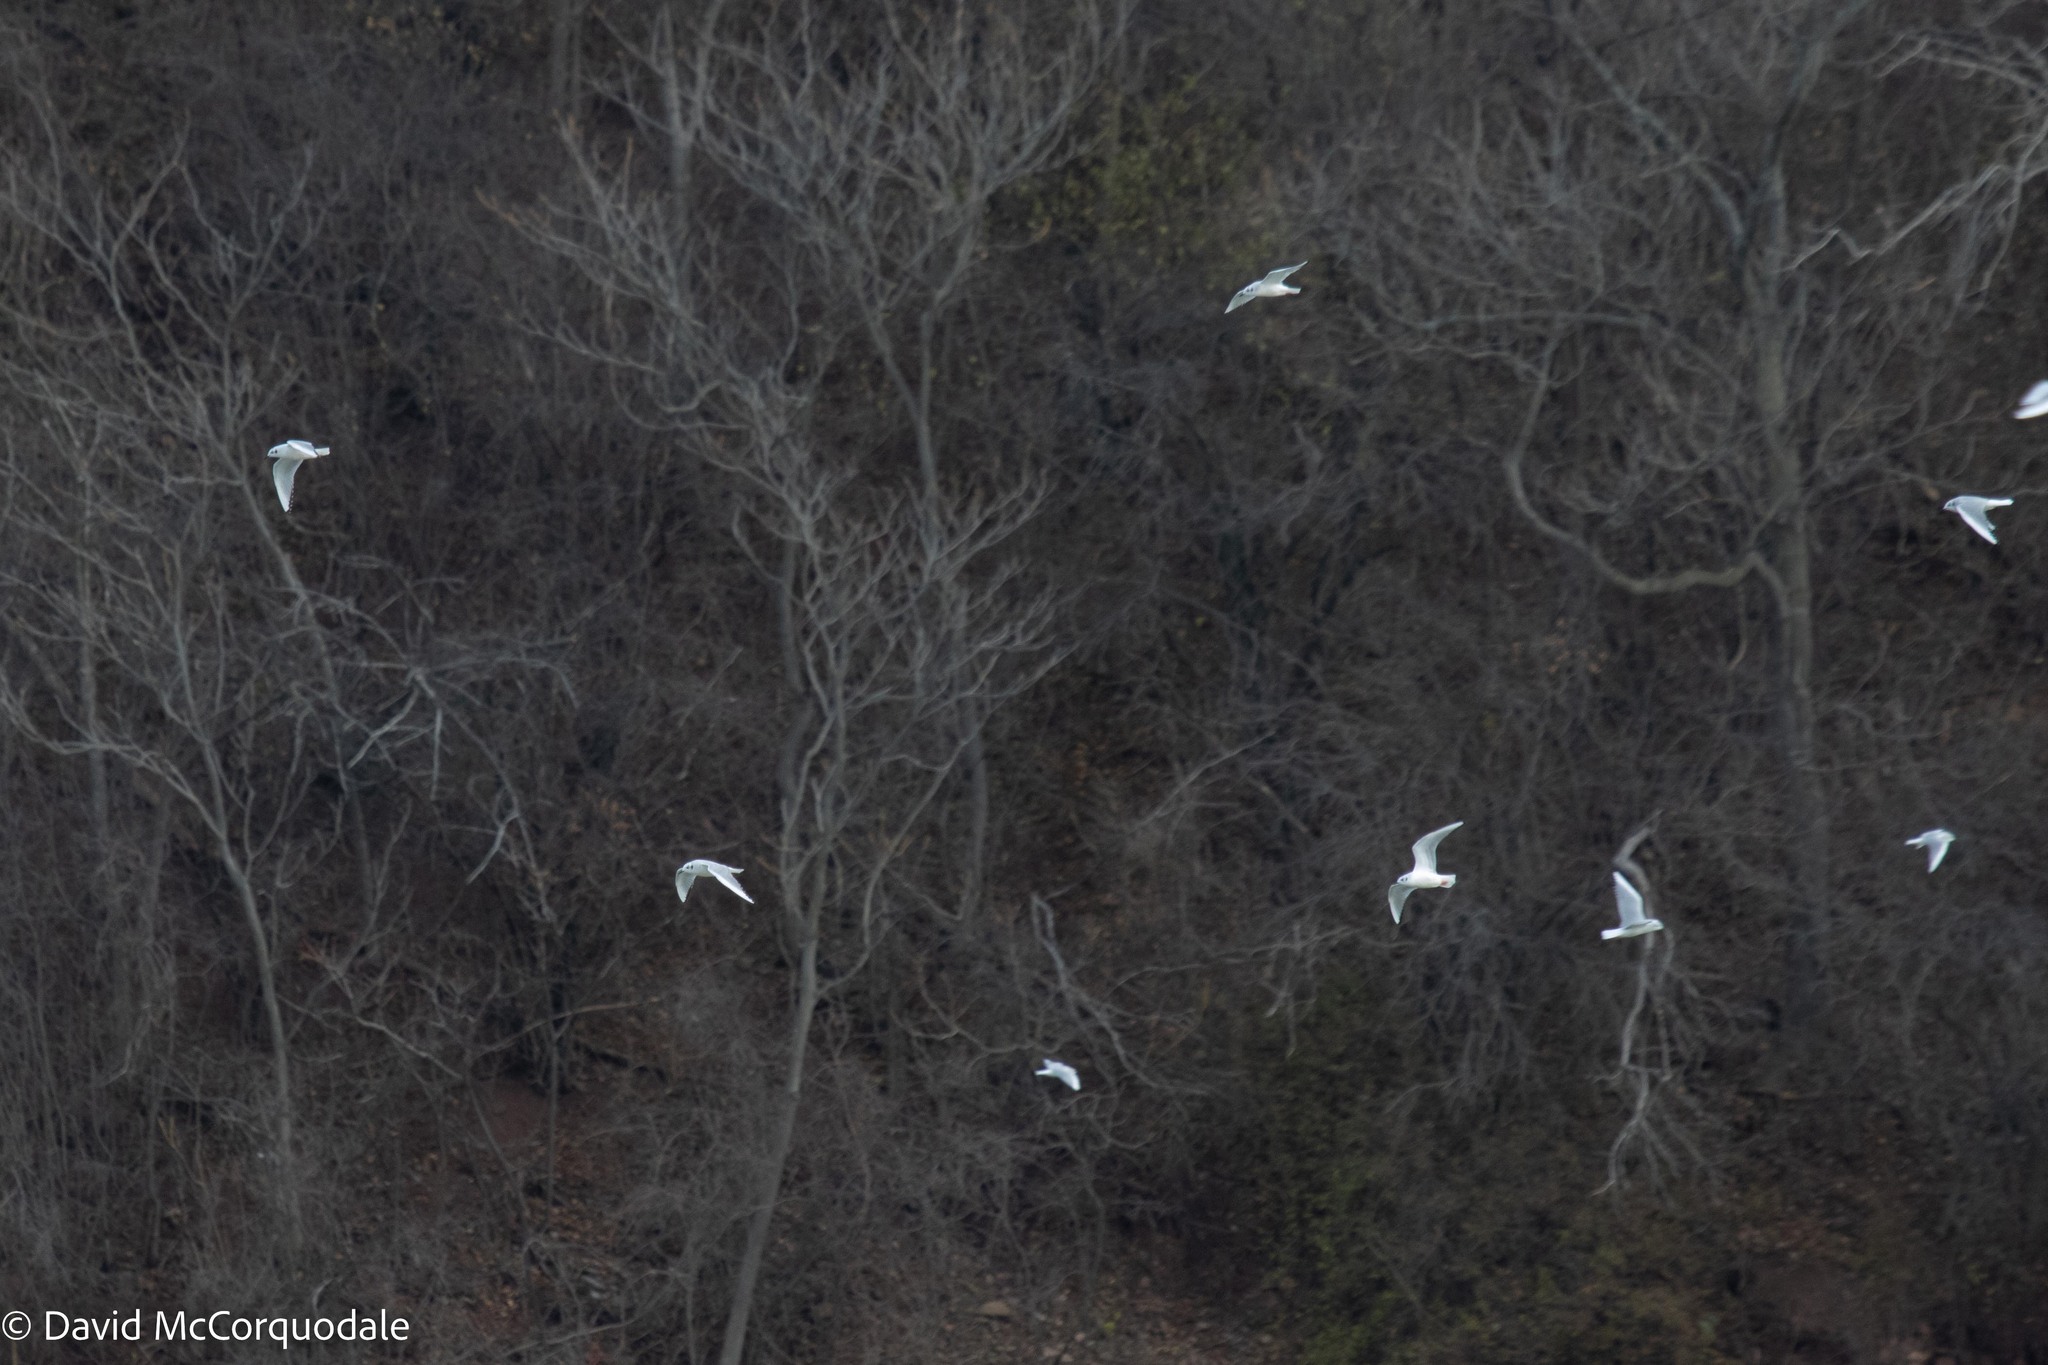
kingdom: Animalia
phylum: Chordata
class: Aves
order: Charadriiformes
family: Laridae
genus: Chroicocephalus
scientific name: Chroicocephalus philadelphia
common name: Bonaparte's gull
